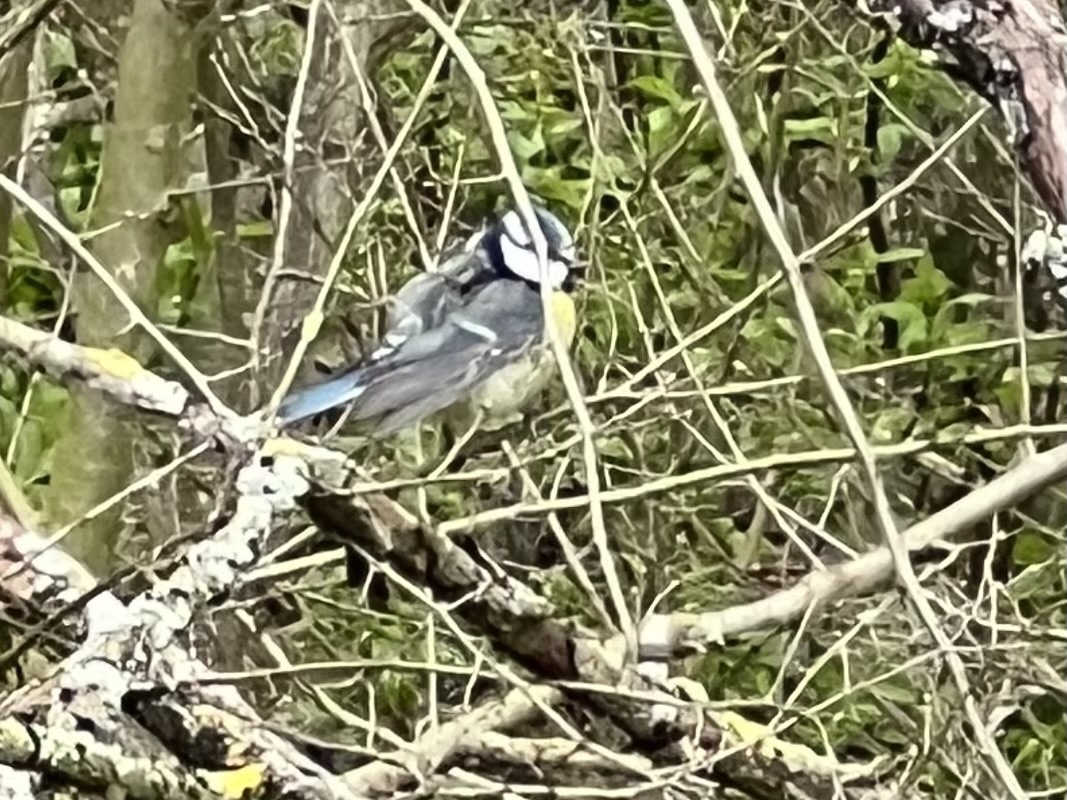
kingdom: Animalia
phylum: Chordata
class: Aves
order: Passeriformes
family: Paridae
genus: Cyanistes
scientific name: Cyanistes caeruleus
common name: Eurasian blue tit
